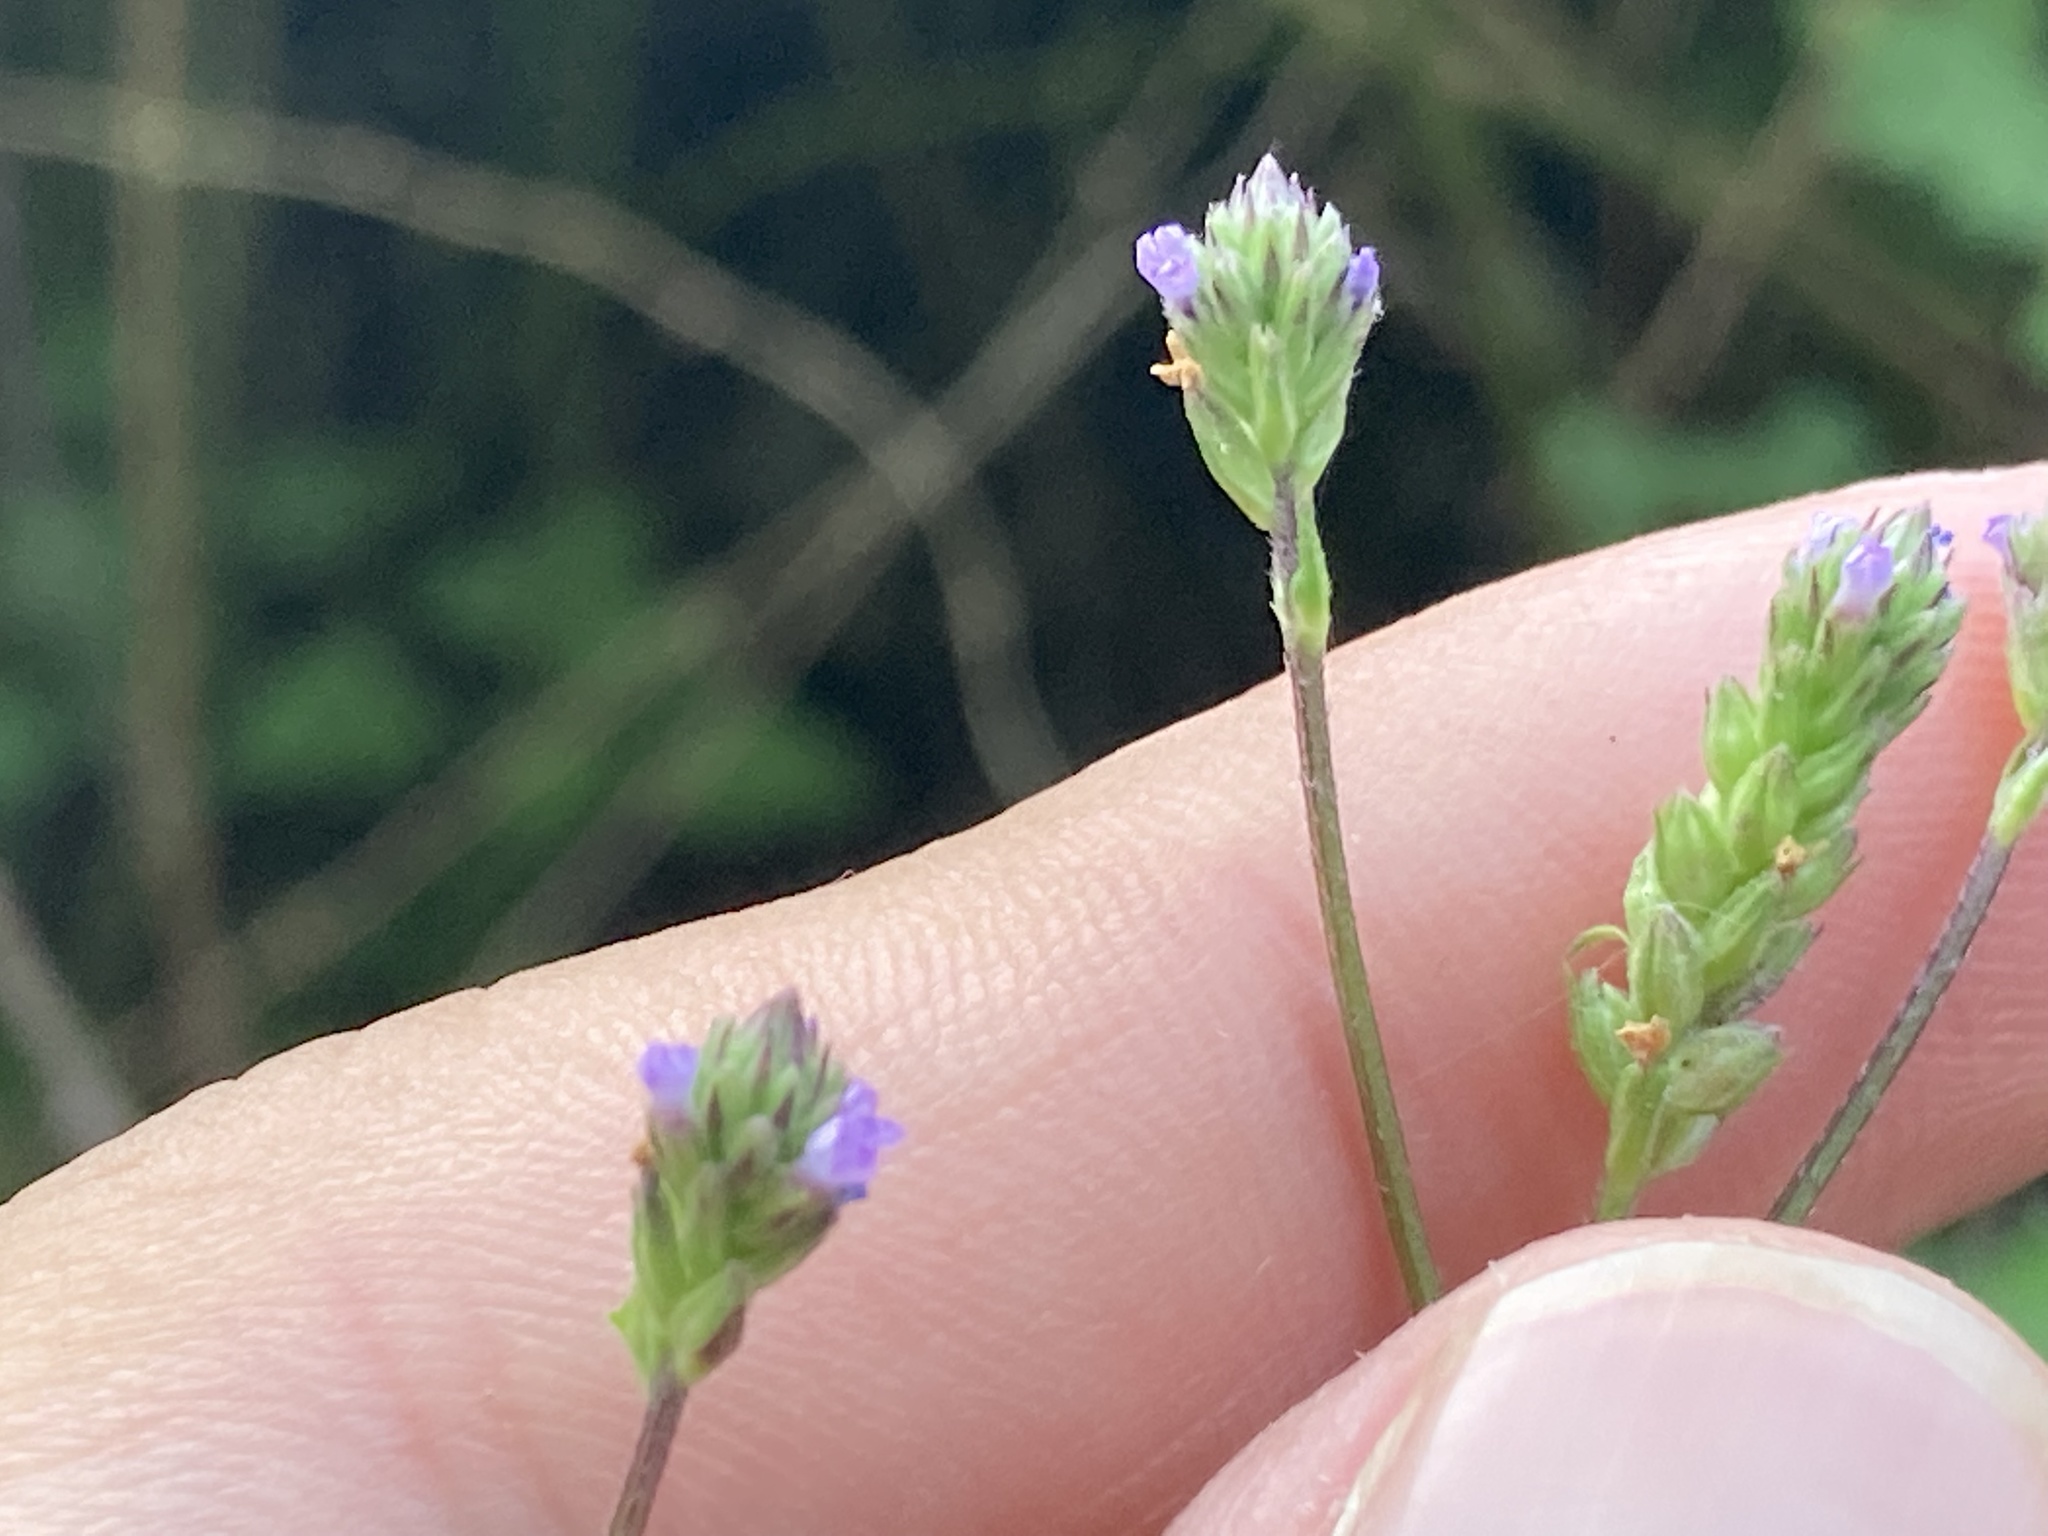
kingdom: Plantae
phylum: Tracheophyta
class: Magnoliopsida
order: Lamiales
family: Verbenaceae
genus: Verbena
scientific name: Verbena brasiliensis
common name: Brazilian vervain
